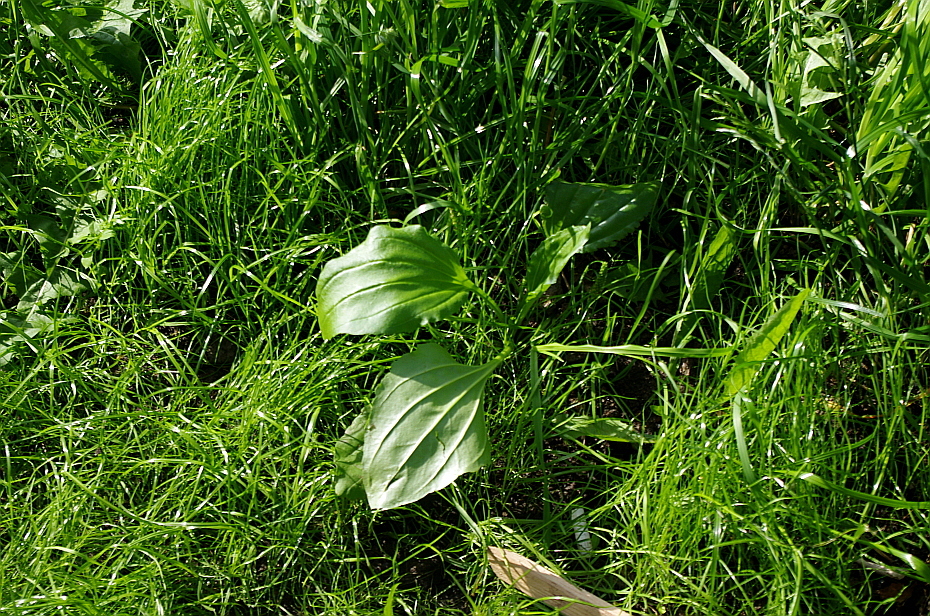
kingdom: Plantae
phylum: Tracheophyta
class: Magnoliopsida
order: Lamiales
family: Plantaginaceae
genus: Plantago
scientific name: Plantago major
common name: Common plantain
